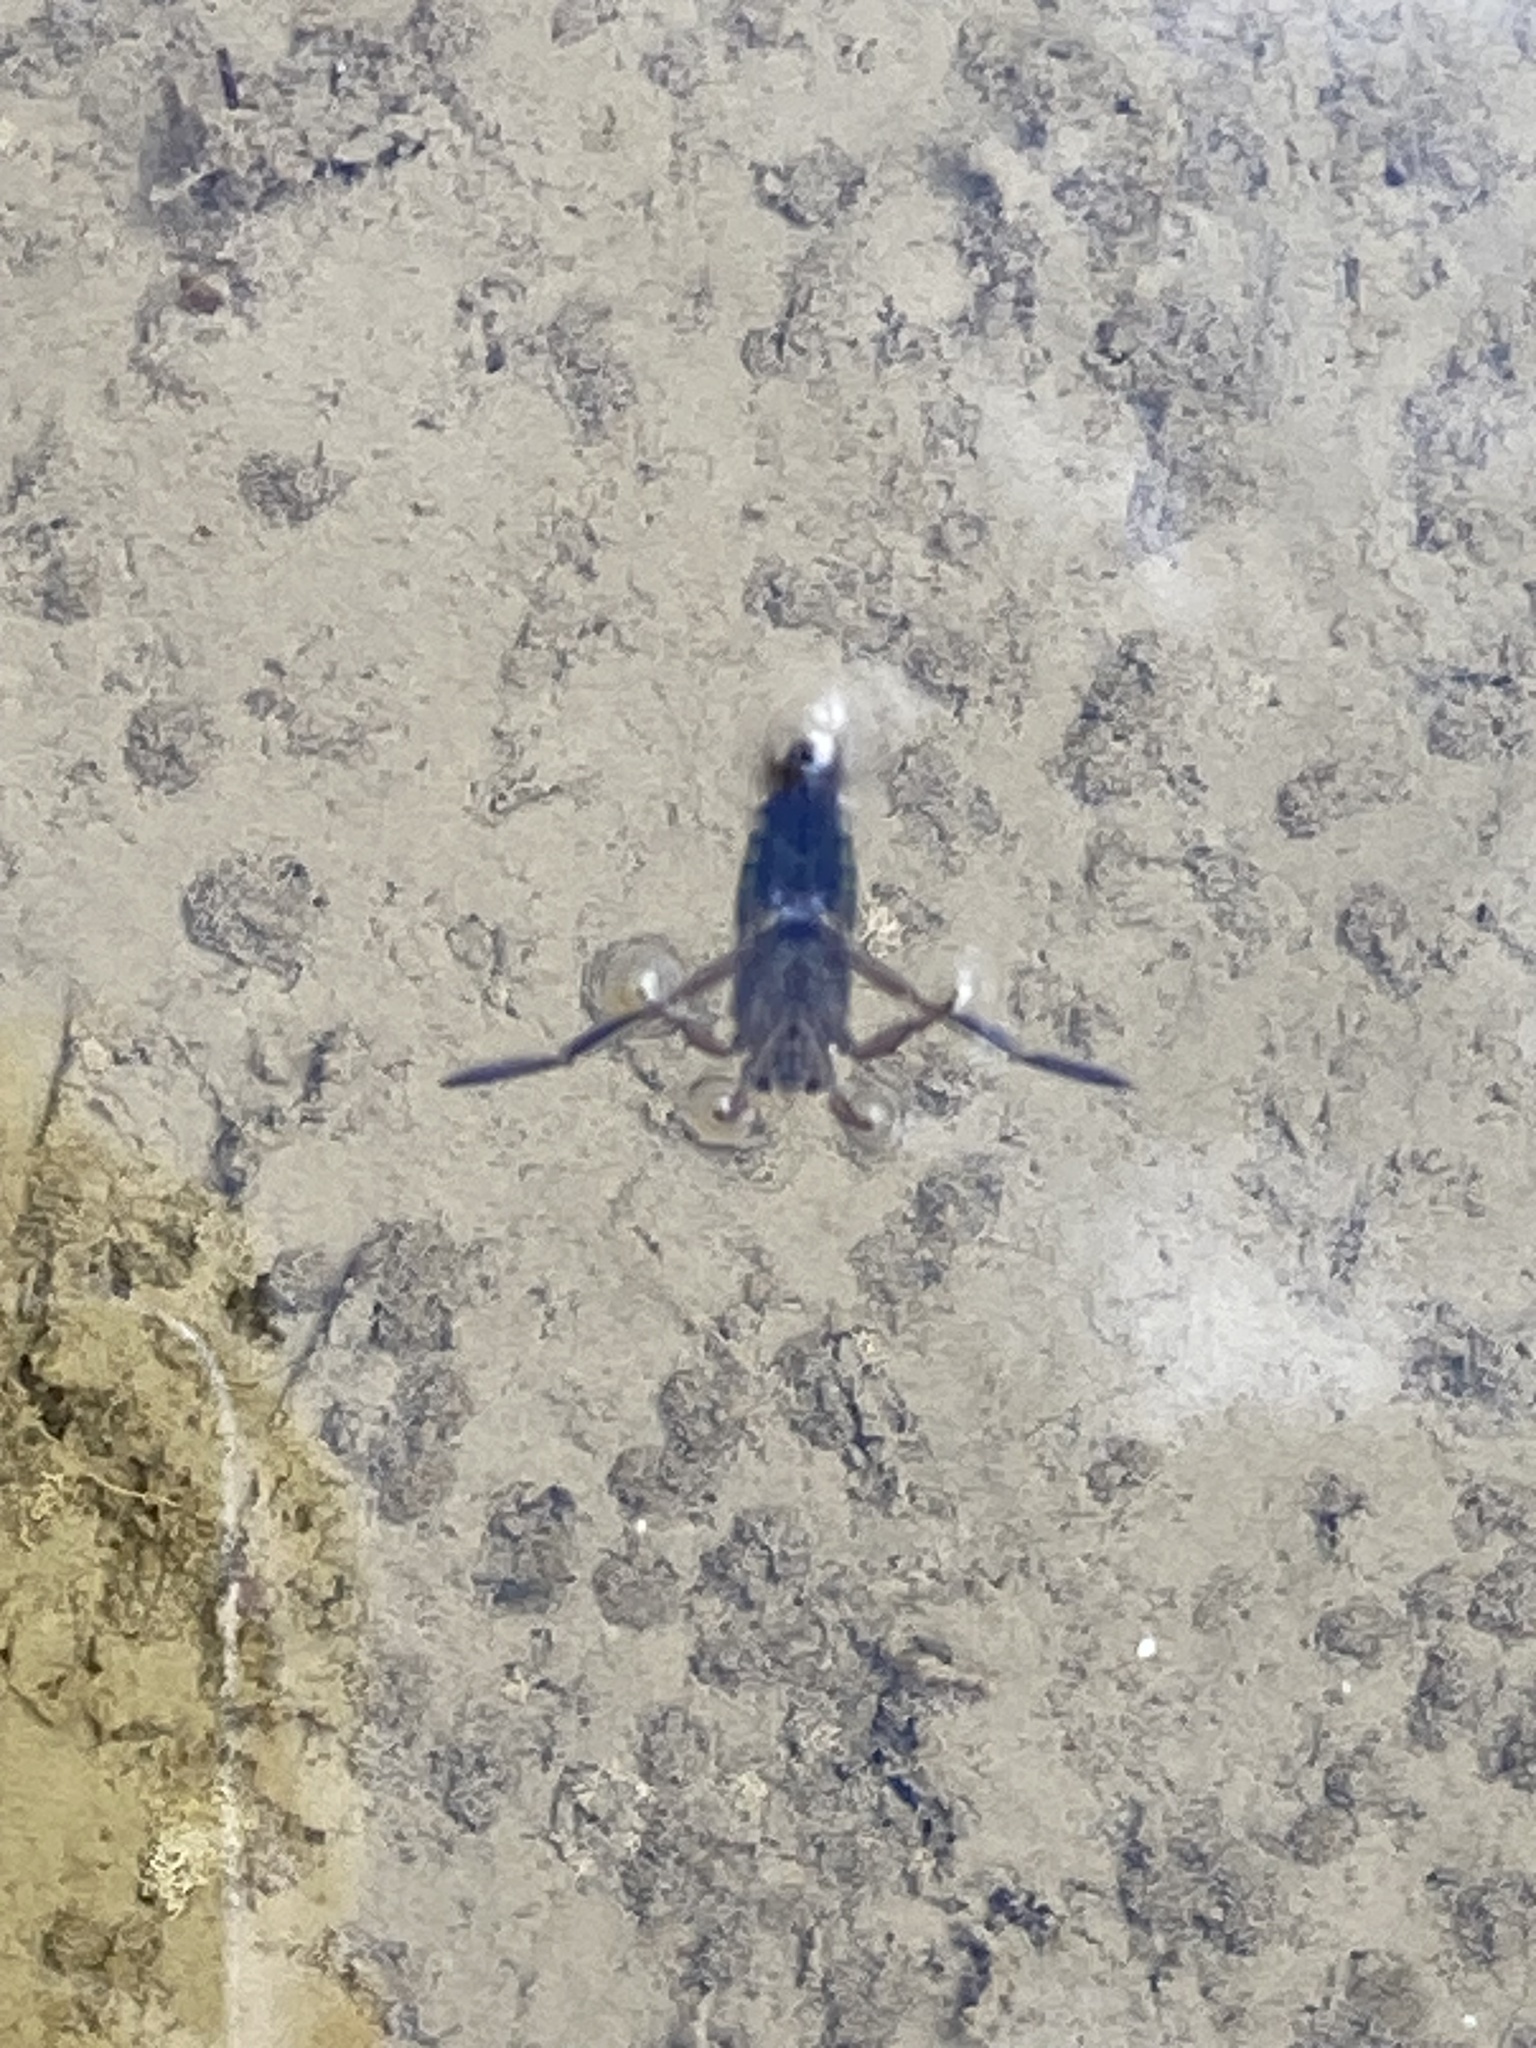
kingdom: Animalia
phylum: Arthropoda
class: Insecta
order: Hemiptera
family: Notonectidae
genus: Notonecta
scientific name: Notonecta
